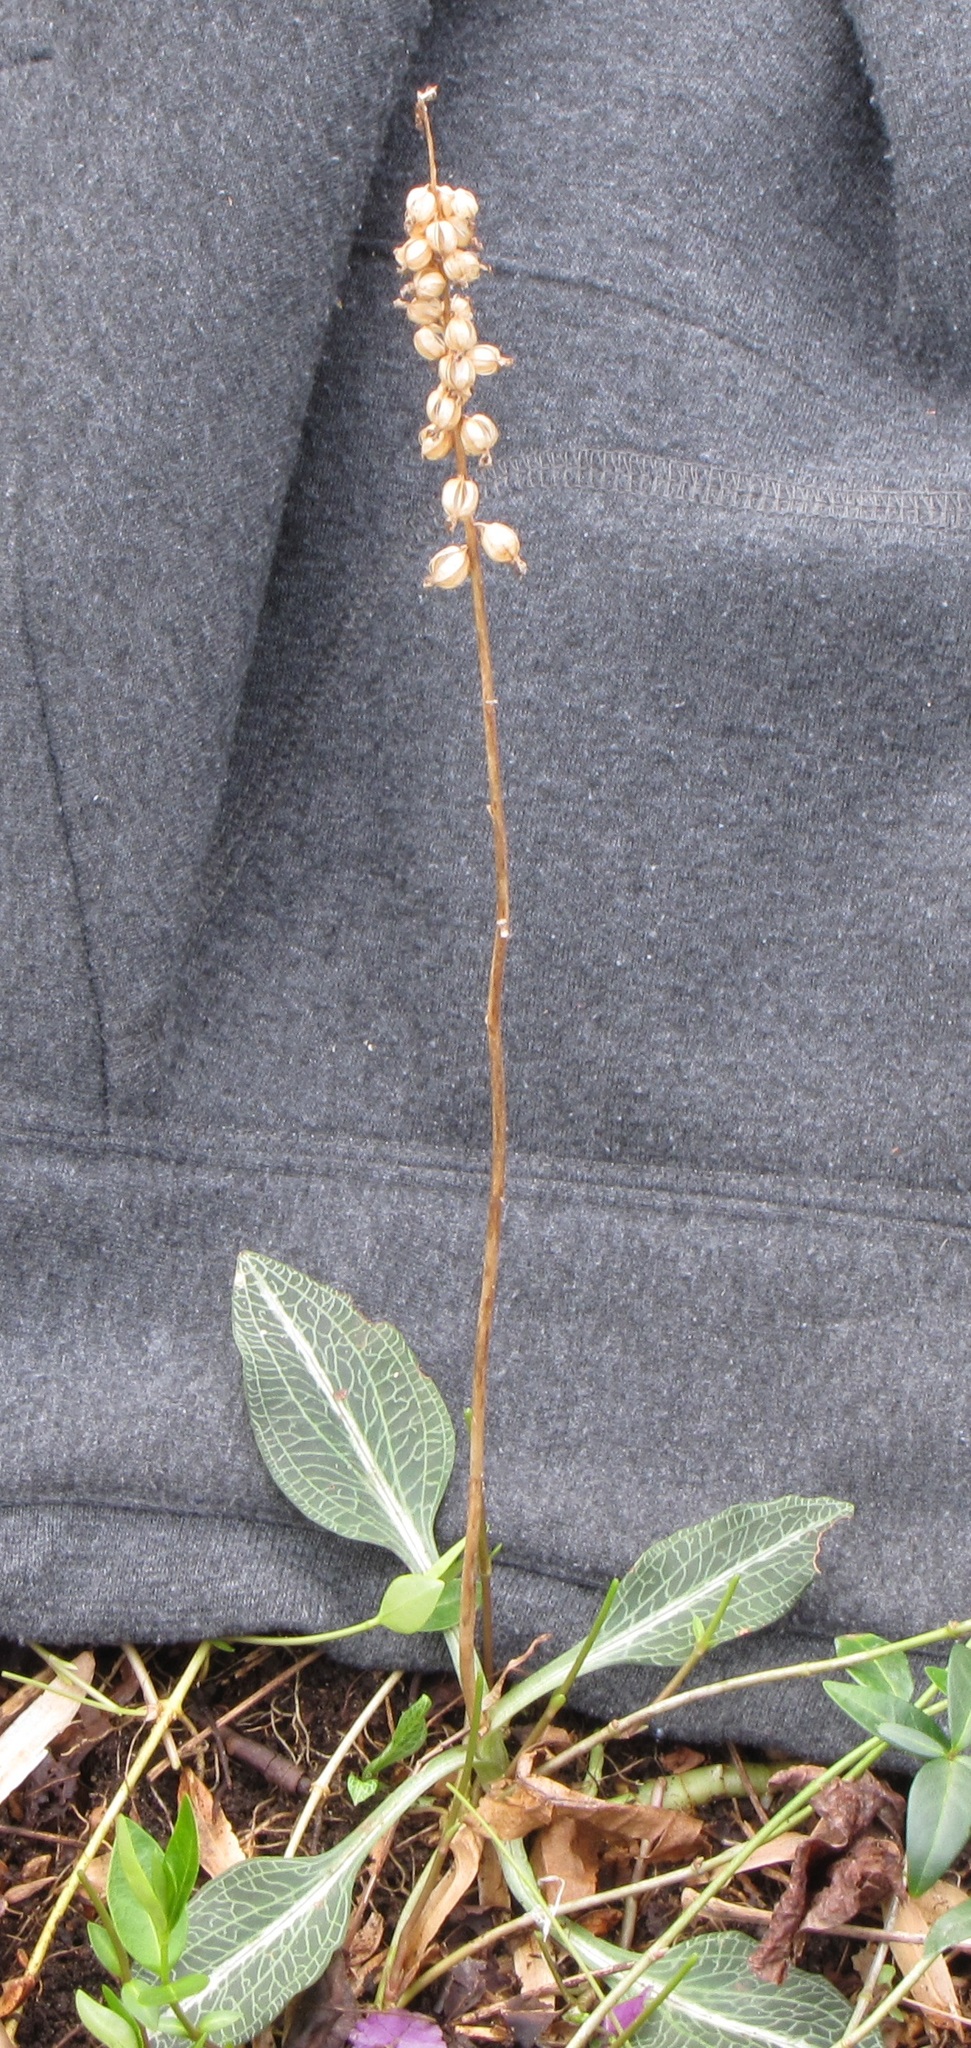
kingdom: Plantae
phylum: Tracheophyta
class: Liliopsida
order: Asparagales
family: Orchidaceae
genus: Goodyera
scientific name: Goodyera pubescens
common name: Downy rattlesnake-plantain
